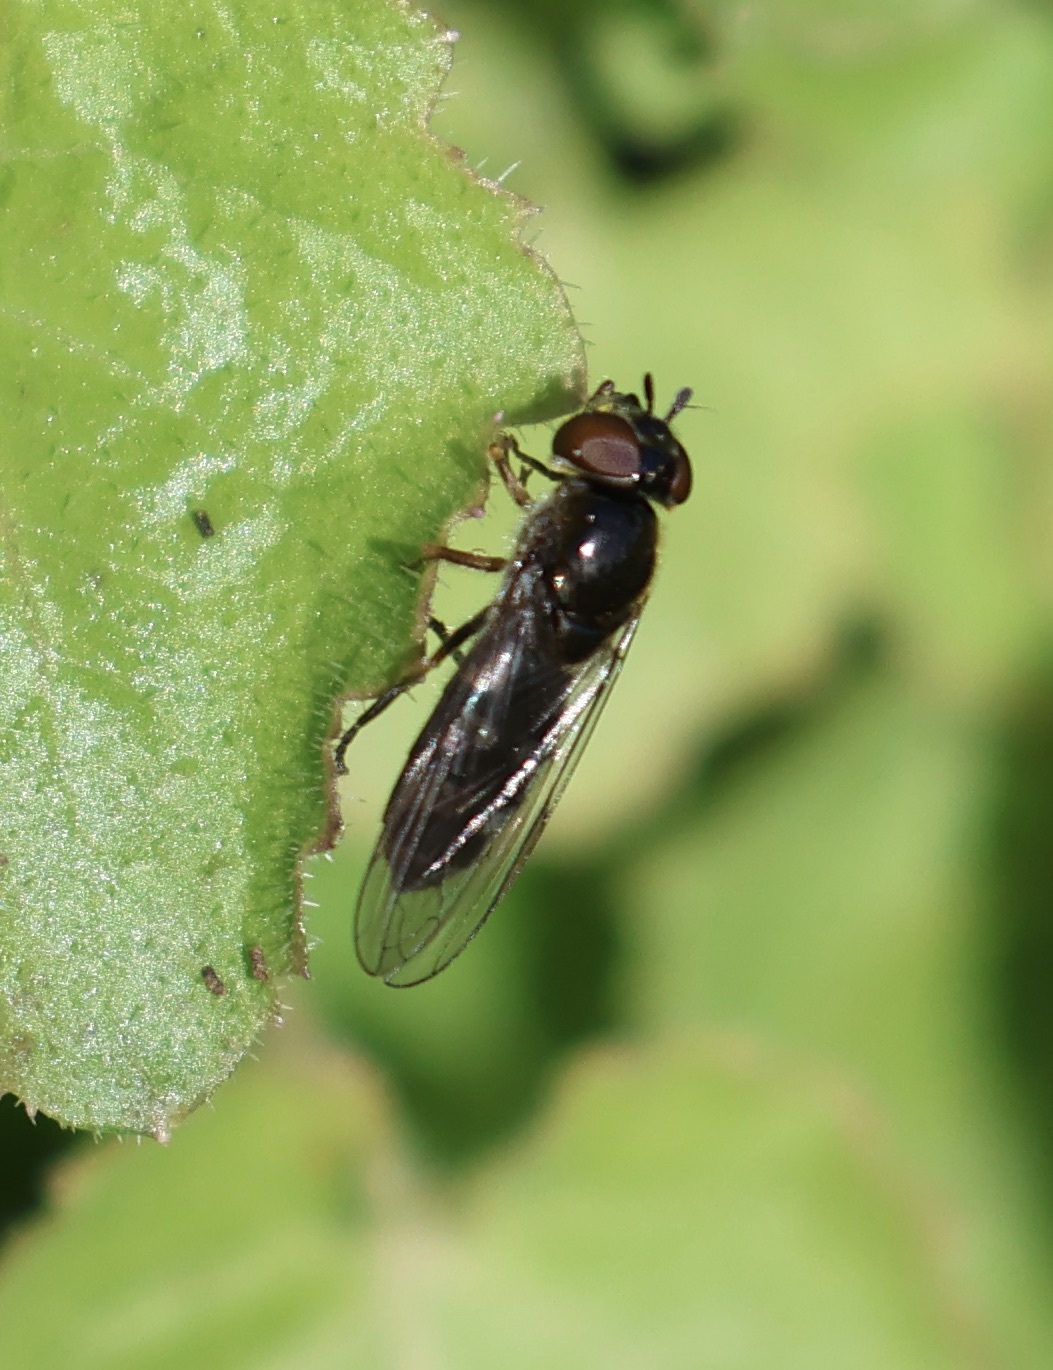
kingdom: Animalia
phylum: Arthropoda
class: Insecta
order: Diptera
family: Syrphidae
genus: Platycheirus
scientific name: Platycheirus albimanus
